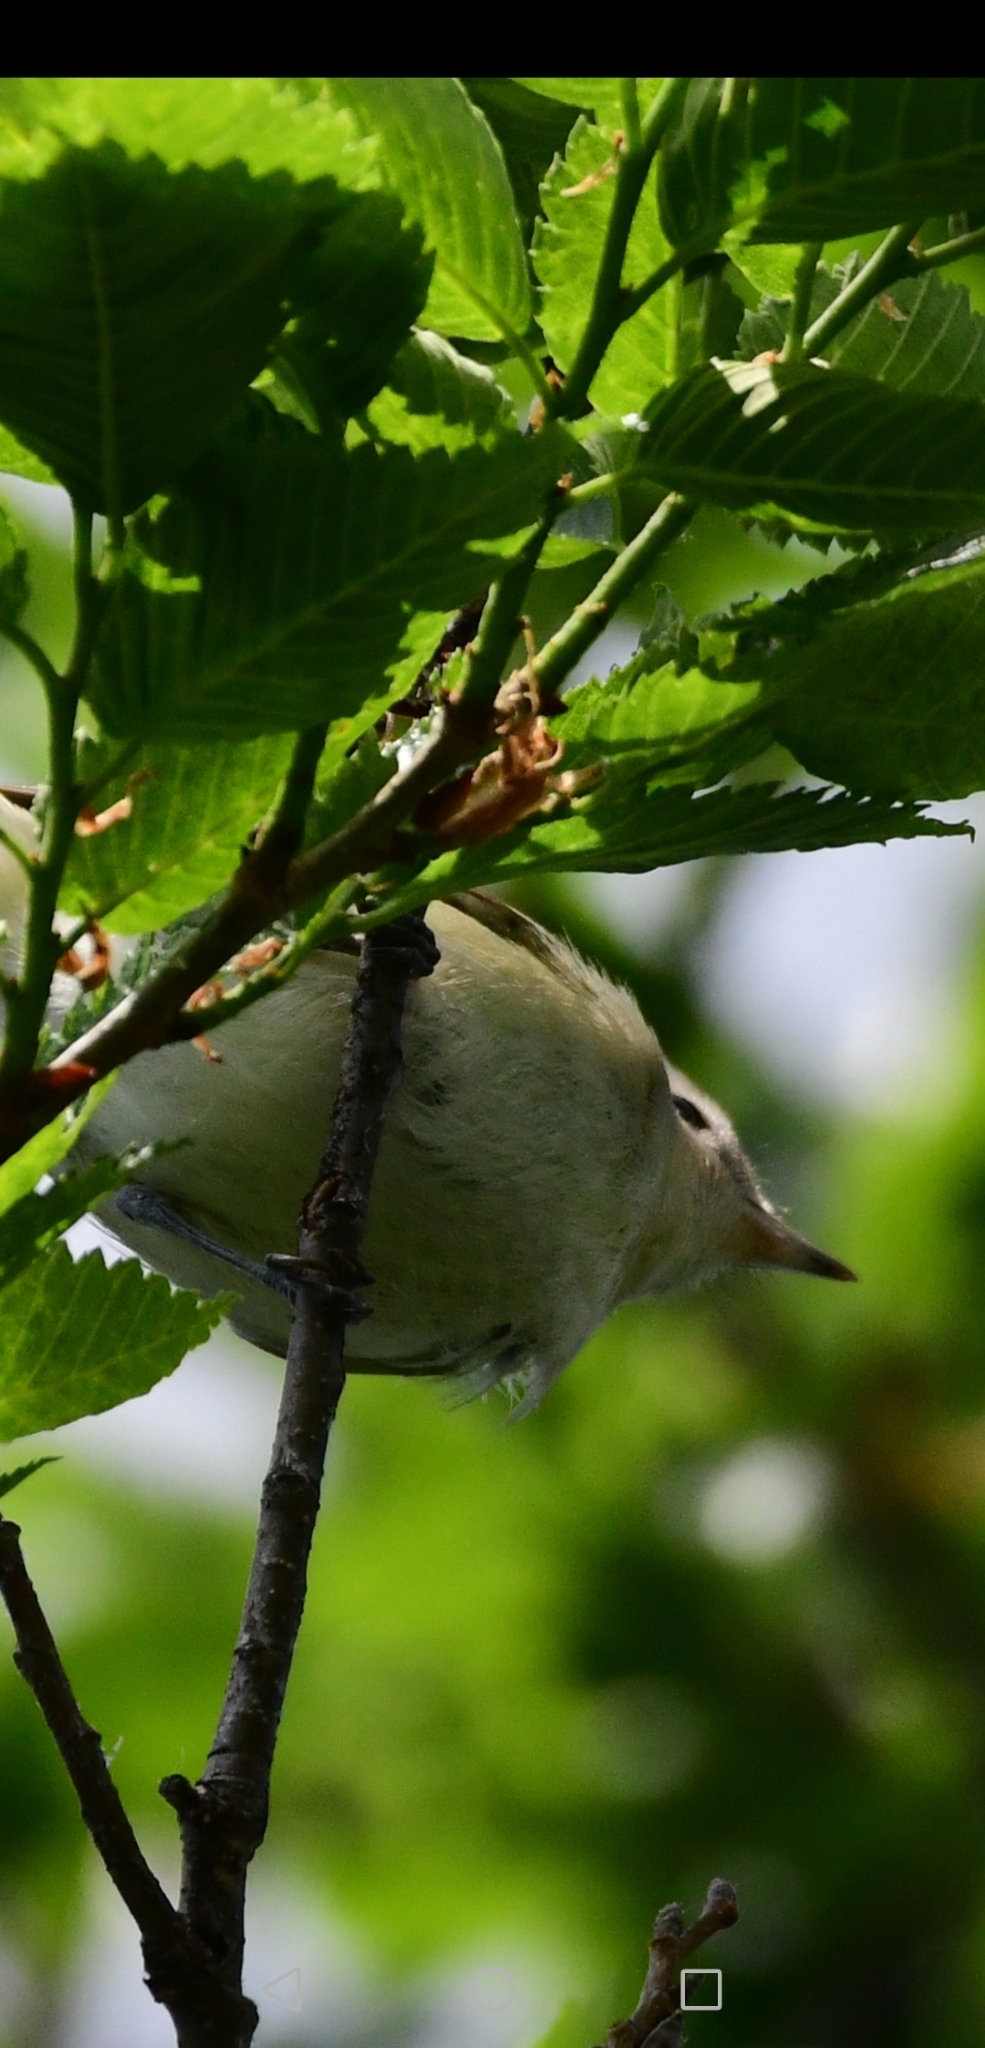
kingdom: Animalia
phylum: Chordata
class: Aves
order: Passeriformes
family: Vireonidae
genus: Vireo
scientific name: Vireo gilvus
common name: Warbling vireo
